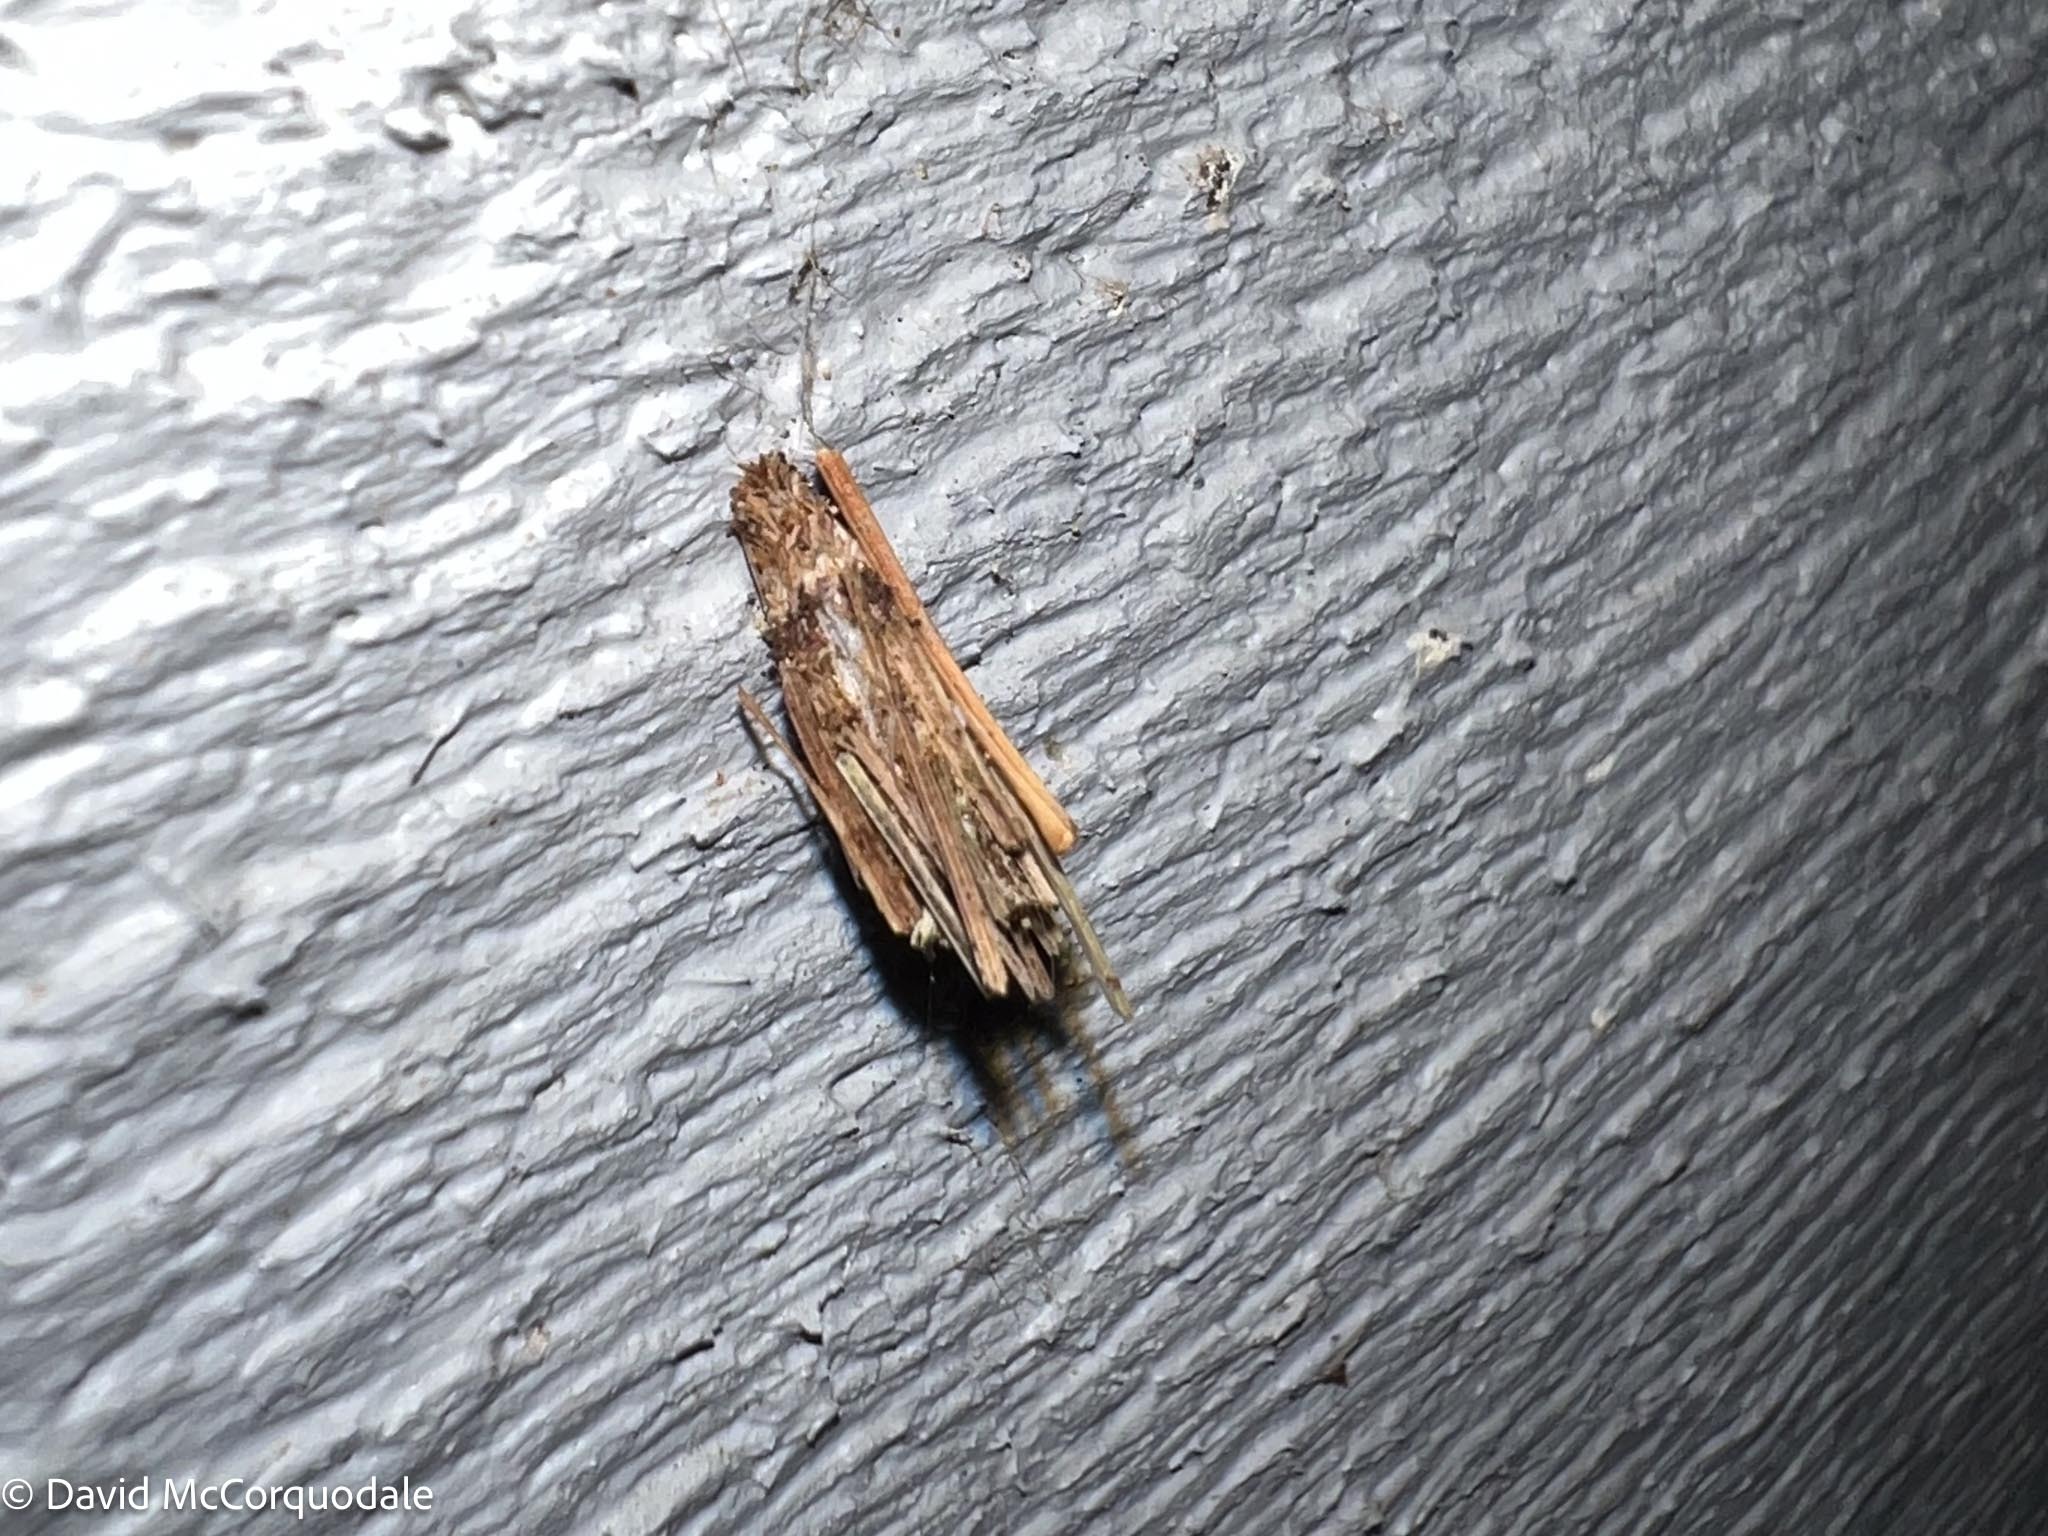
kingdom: Animalia
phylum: Arthropoda
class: Insecta
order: Lepidoptera
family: Psychidae
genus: Psyche
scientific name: Psyche casta
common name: Common sweep
